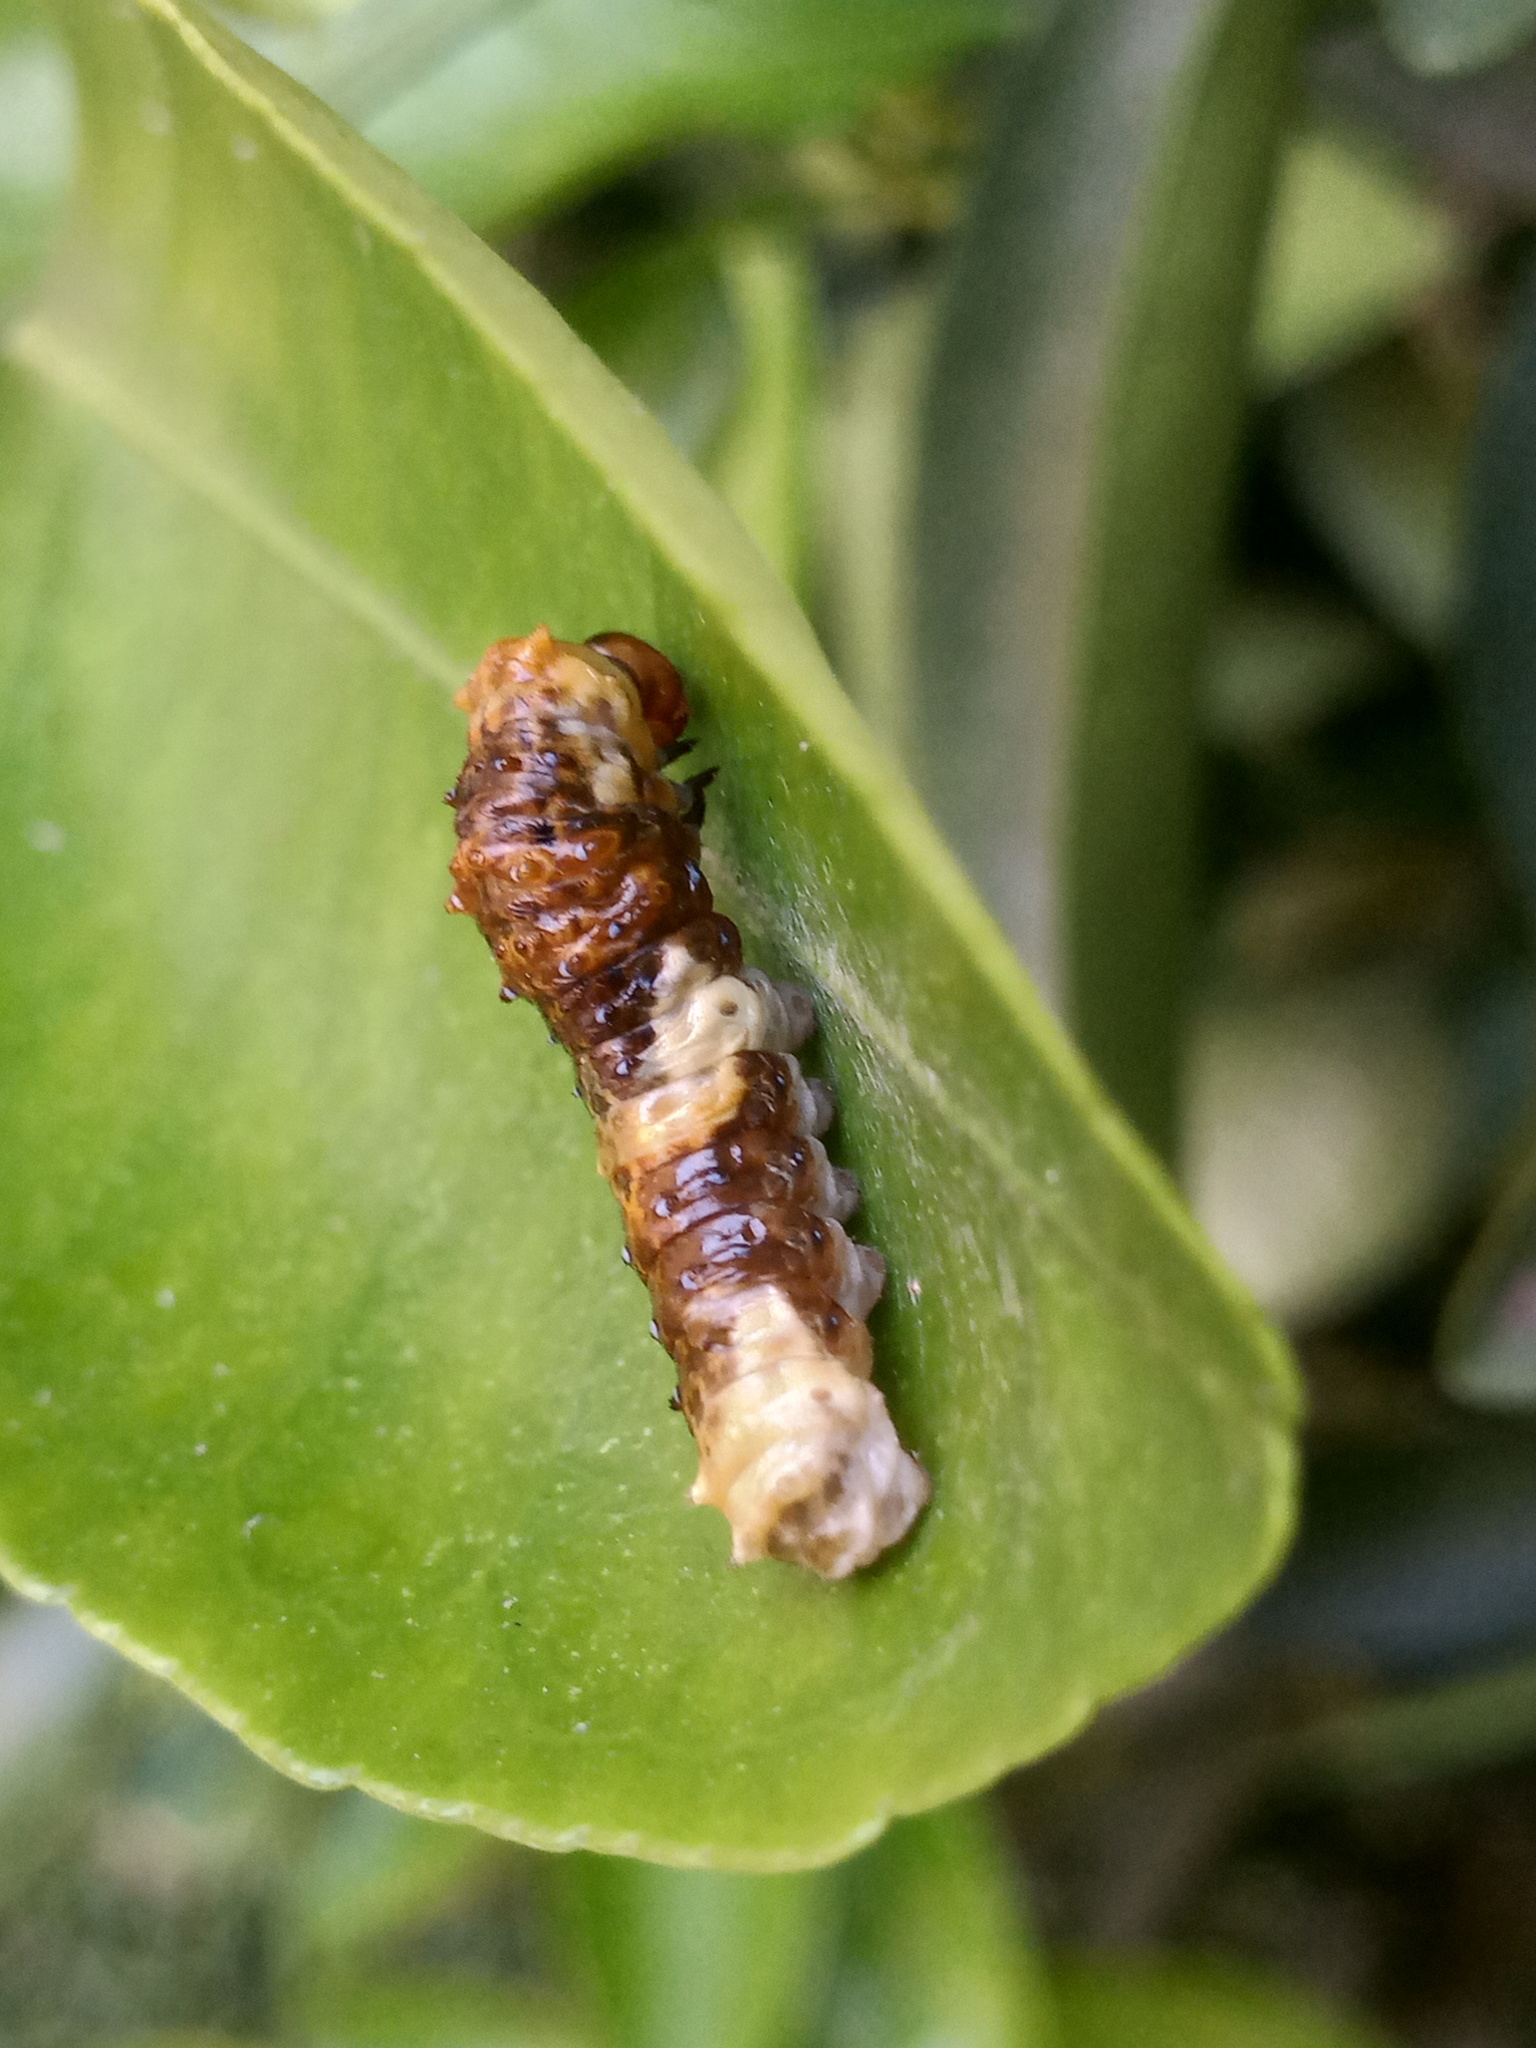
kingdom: Animalia
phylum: Arthropoda
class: Insecta
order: Lepidoptera
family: Papilionidae
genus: Papilio
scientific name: Papilio rumiko
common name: Western giant swallowtail
